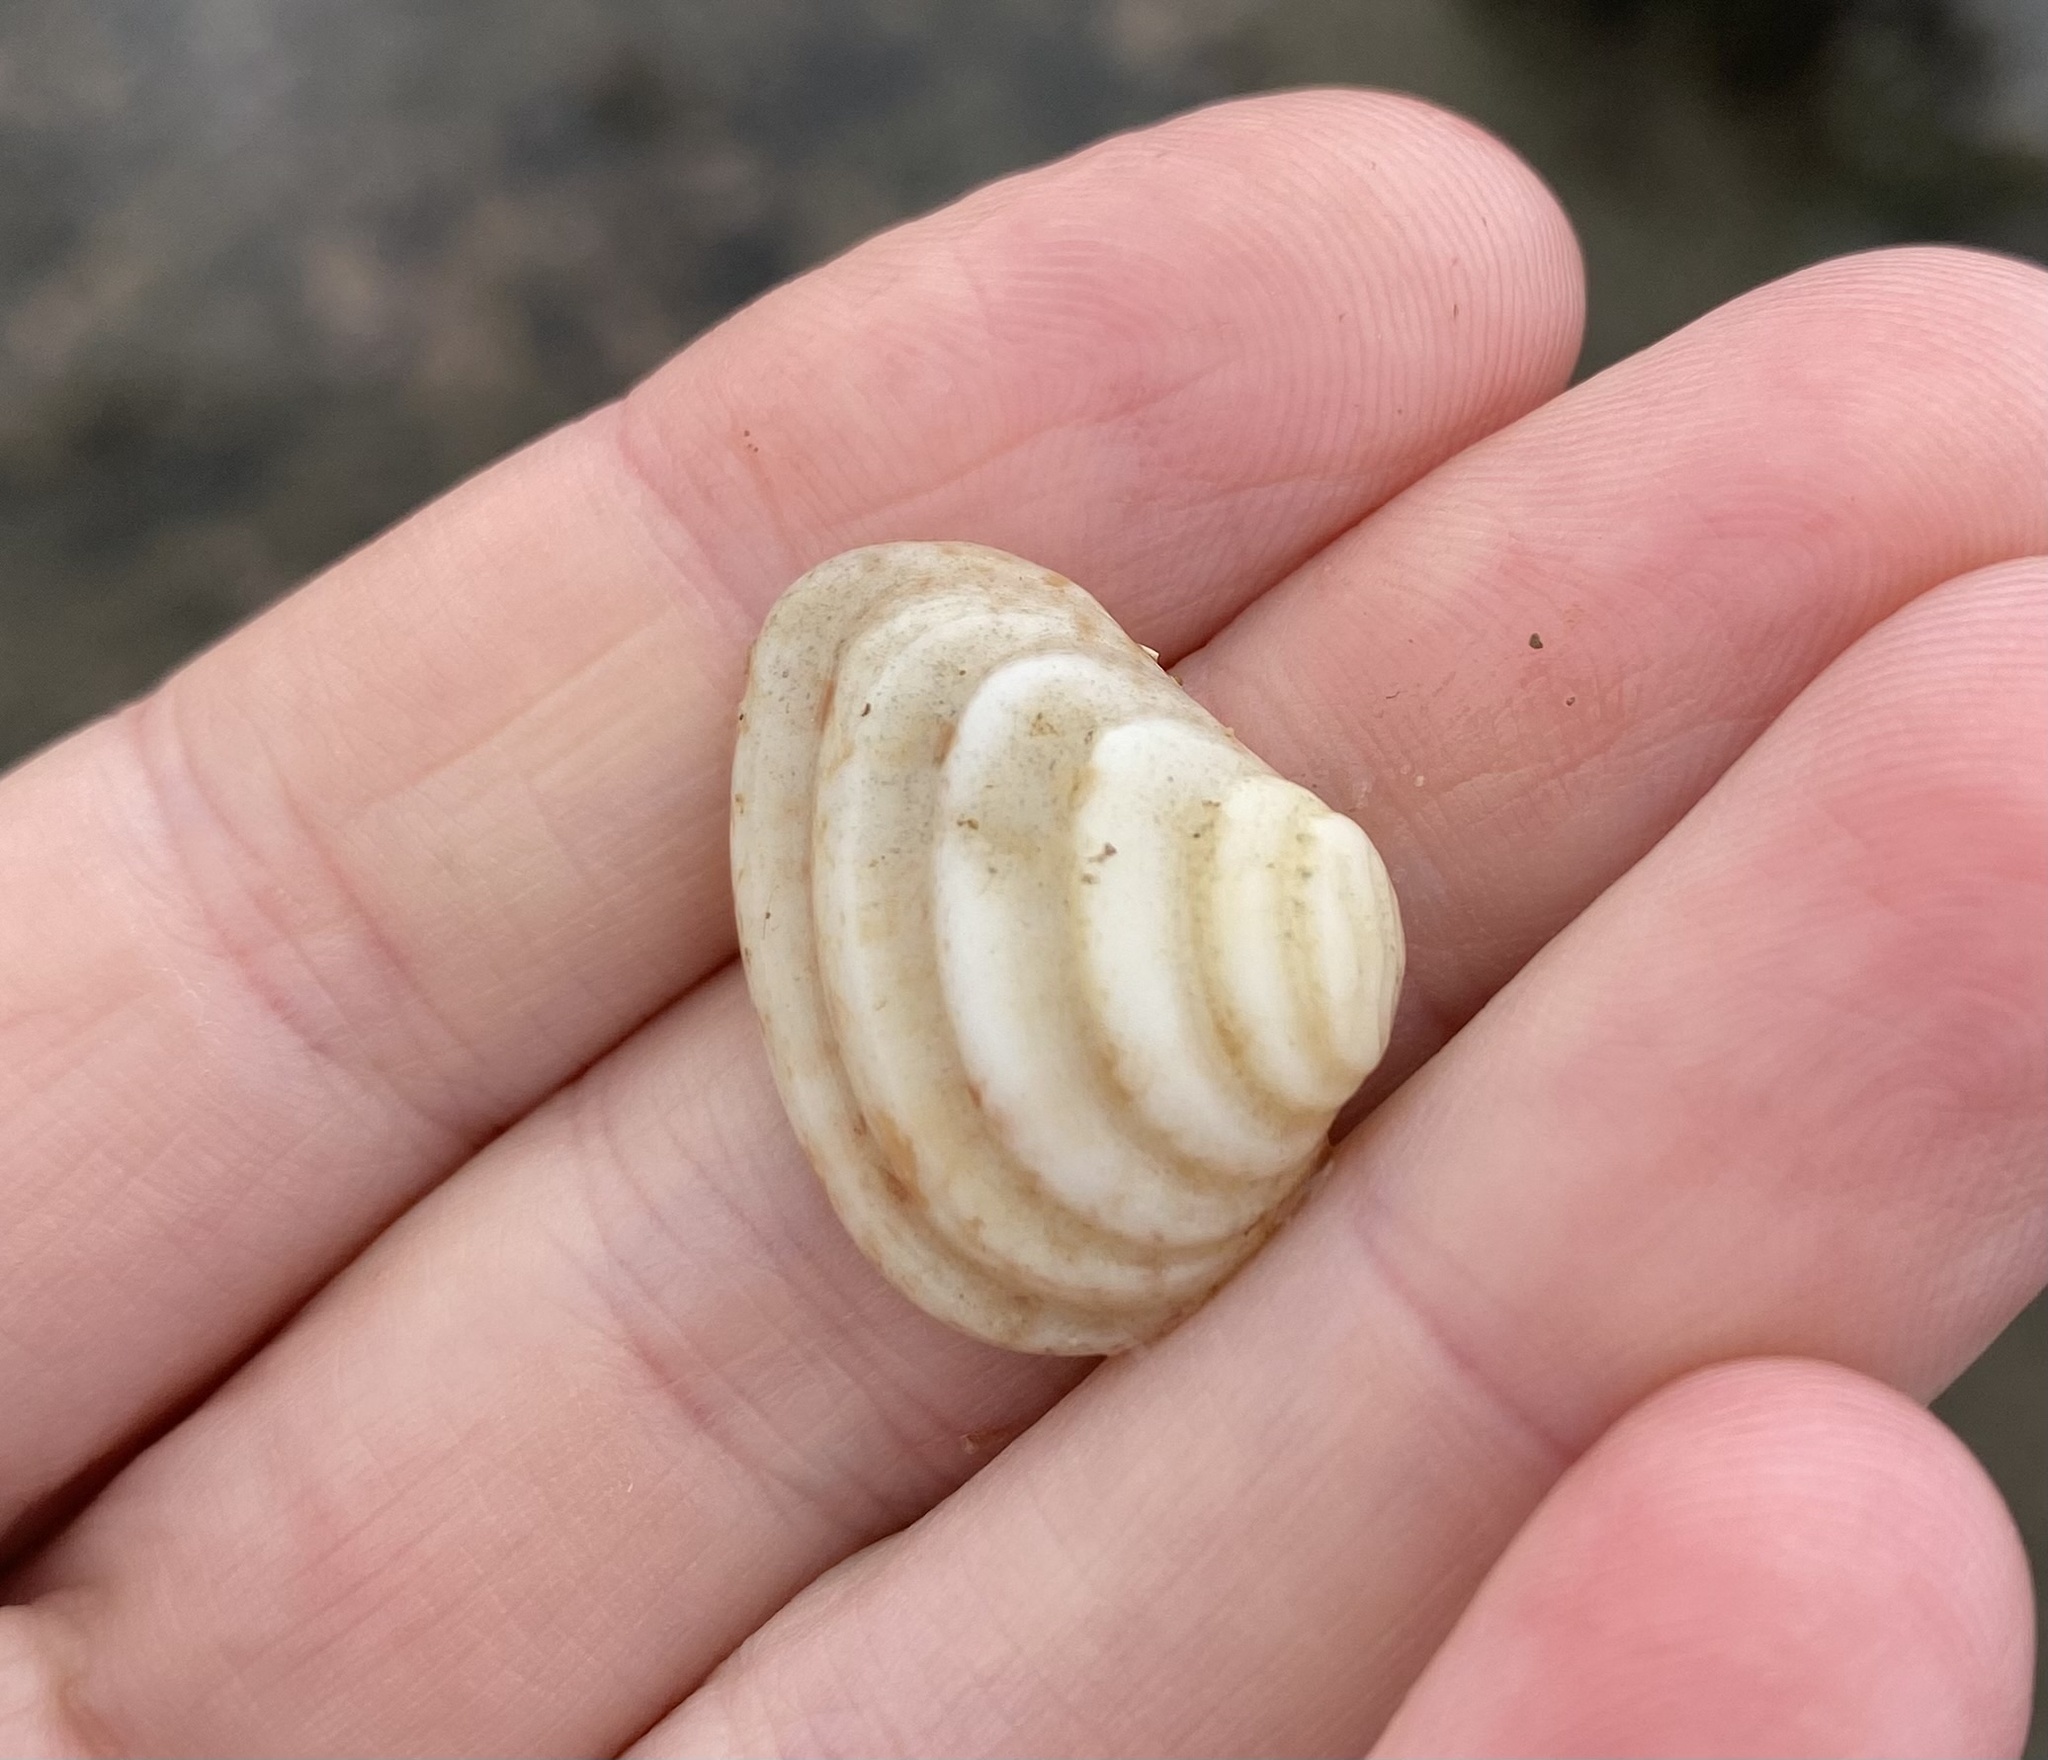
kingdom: Animalia
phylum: Mollusca
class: Bivalvia
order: Venerida
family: Veneridae
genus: Comus
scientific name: Comus platyaulax
